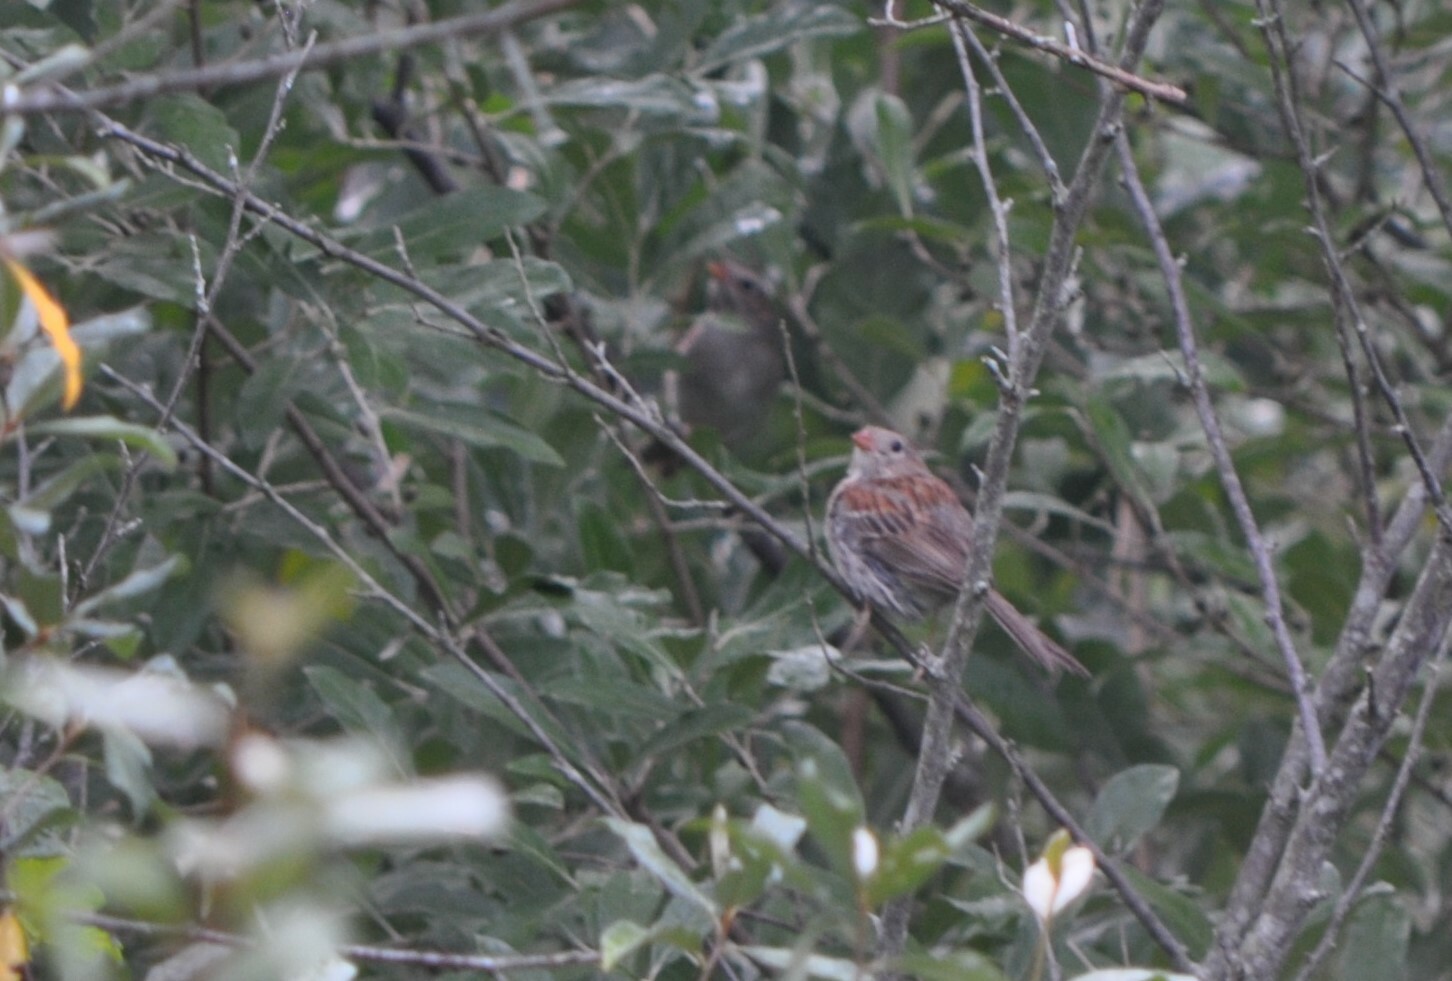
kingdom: Animalia
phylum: Chordata
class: Aves
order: Passeriformes
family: Passerellidae
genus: Spizella
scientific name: Spizella pusilla
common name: Field sparrow
